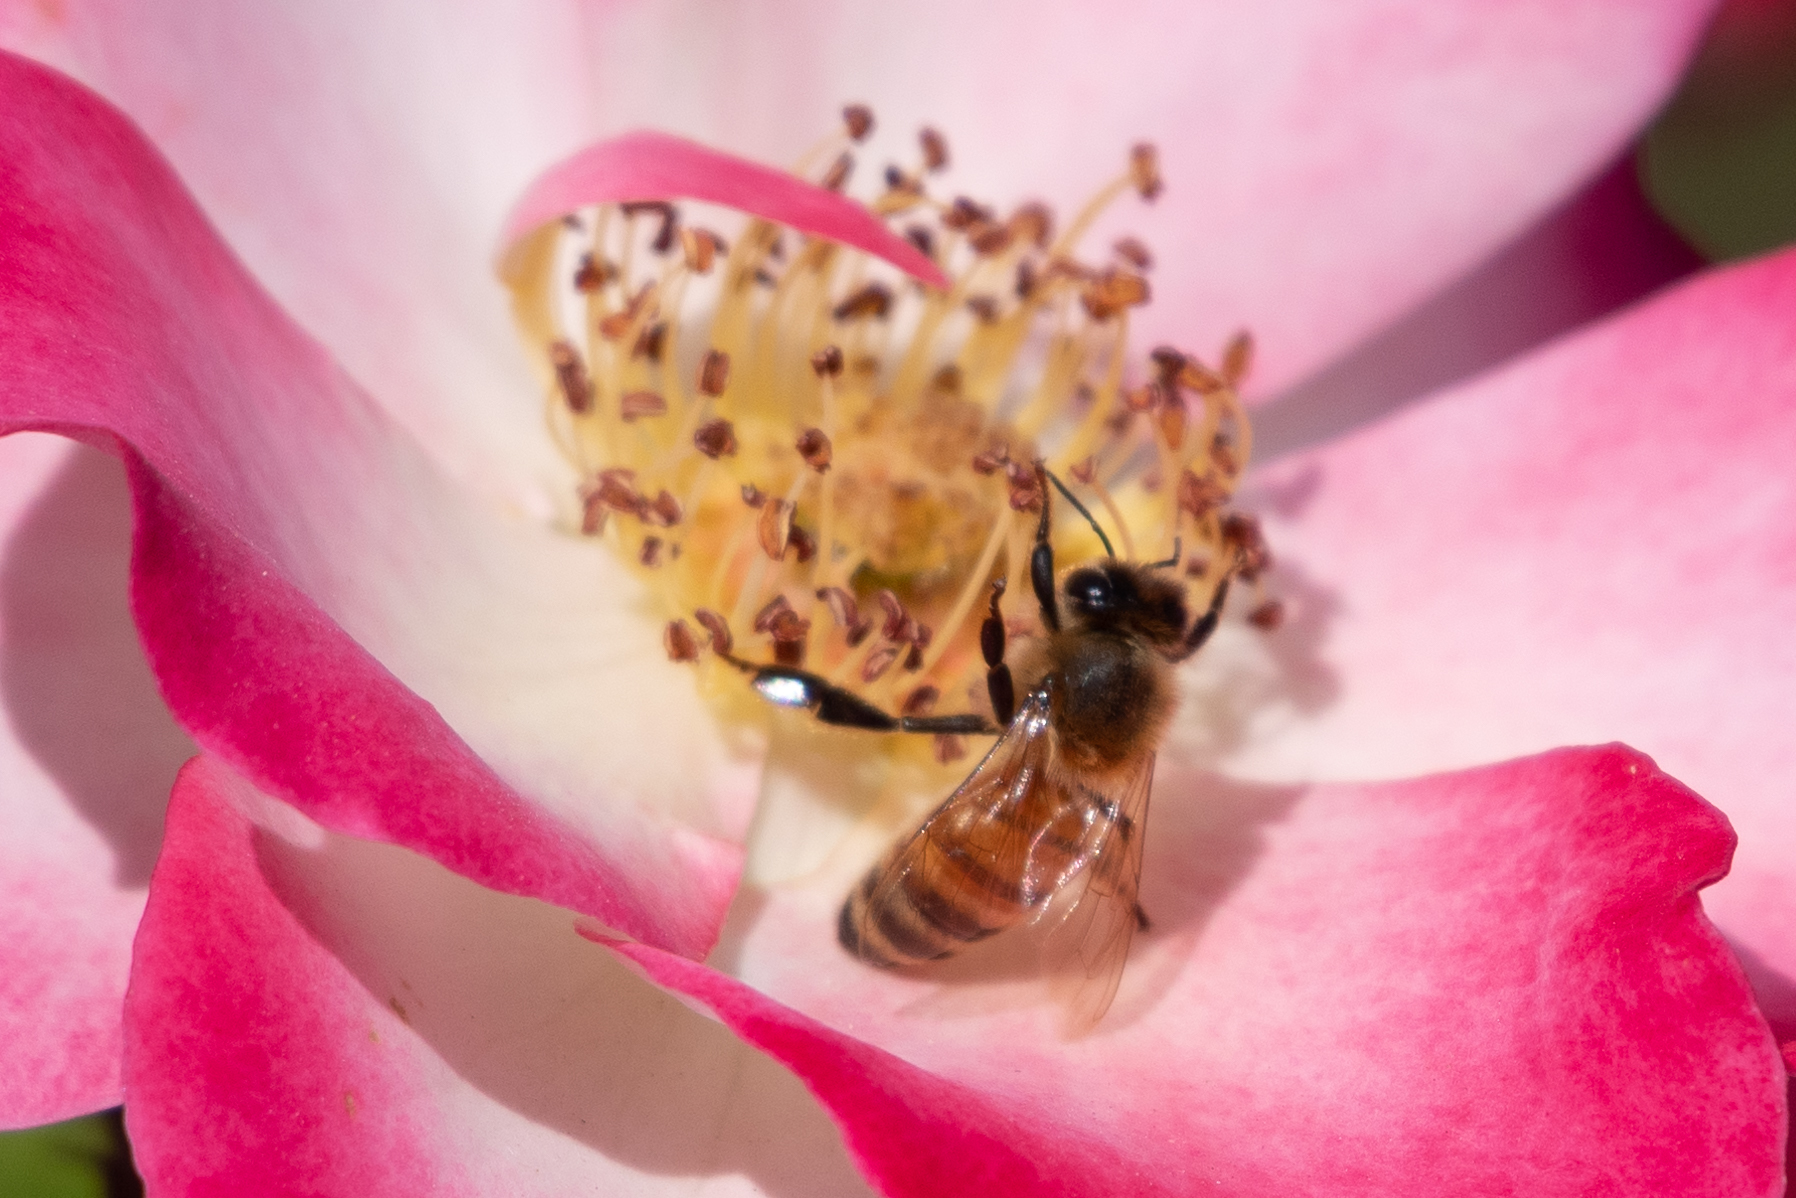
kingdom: Animalia
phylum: Arthropoda
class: Insecta
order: Hymenoptera
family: Apidae
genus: Apis
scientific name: Apis mellifera
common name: Honey bee
